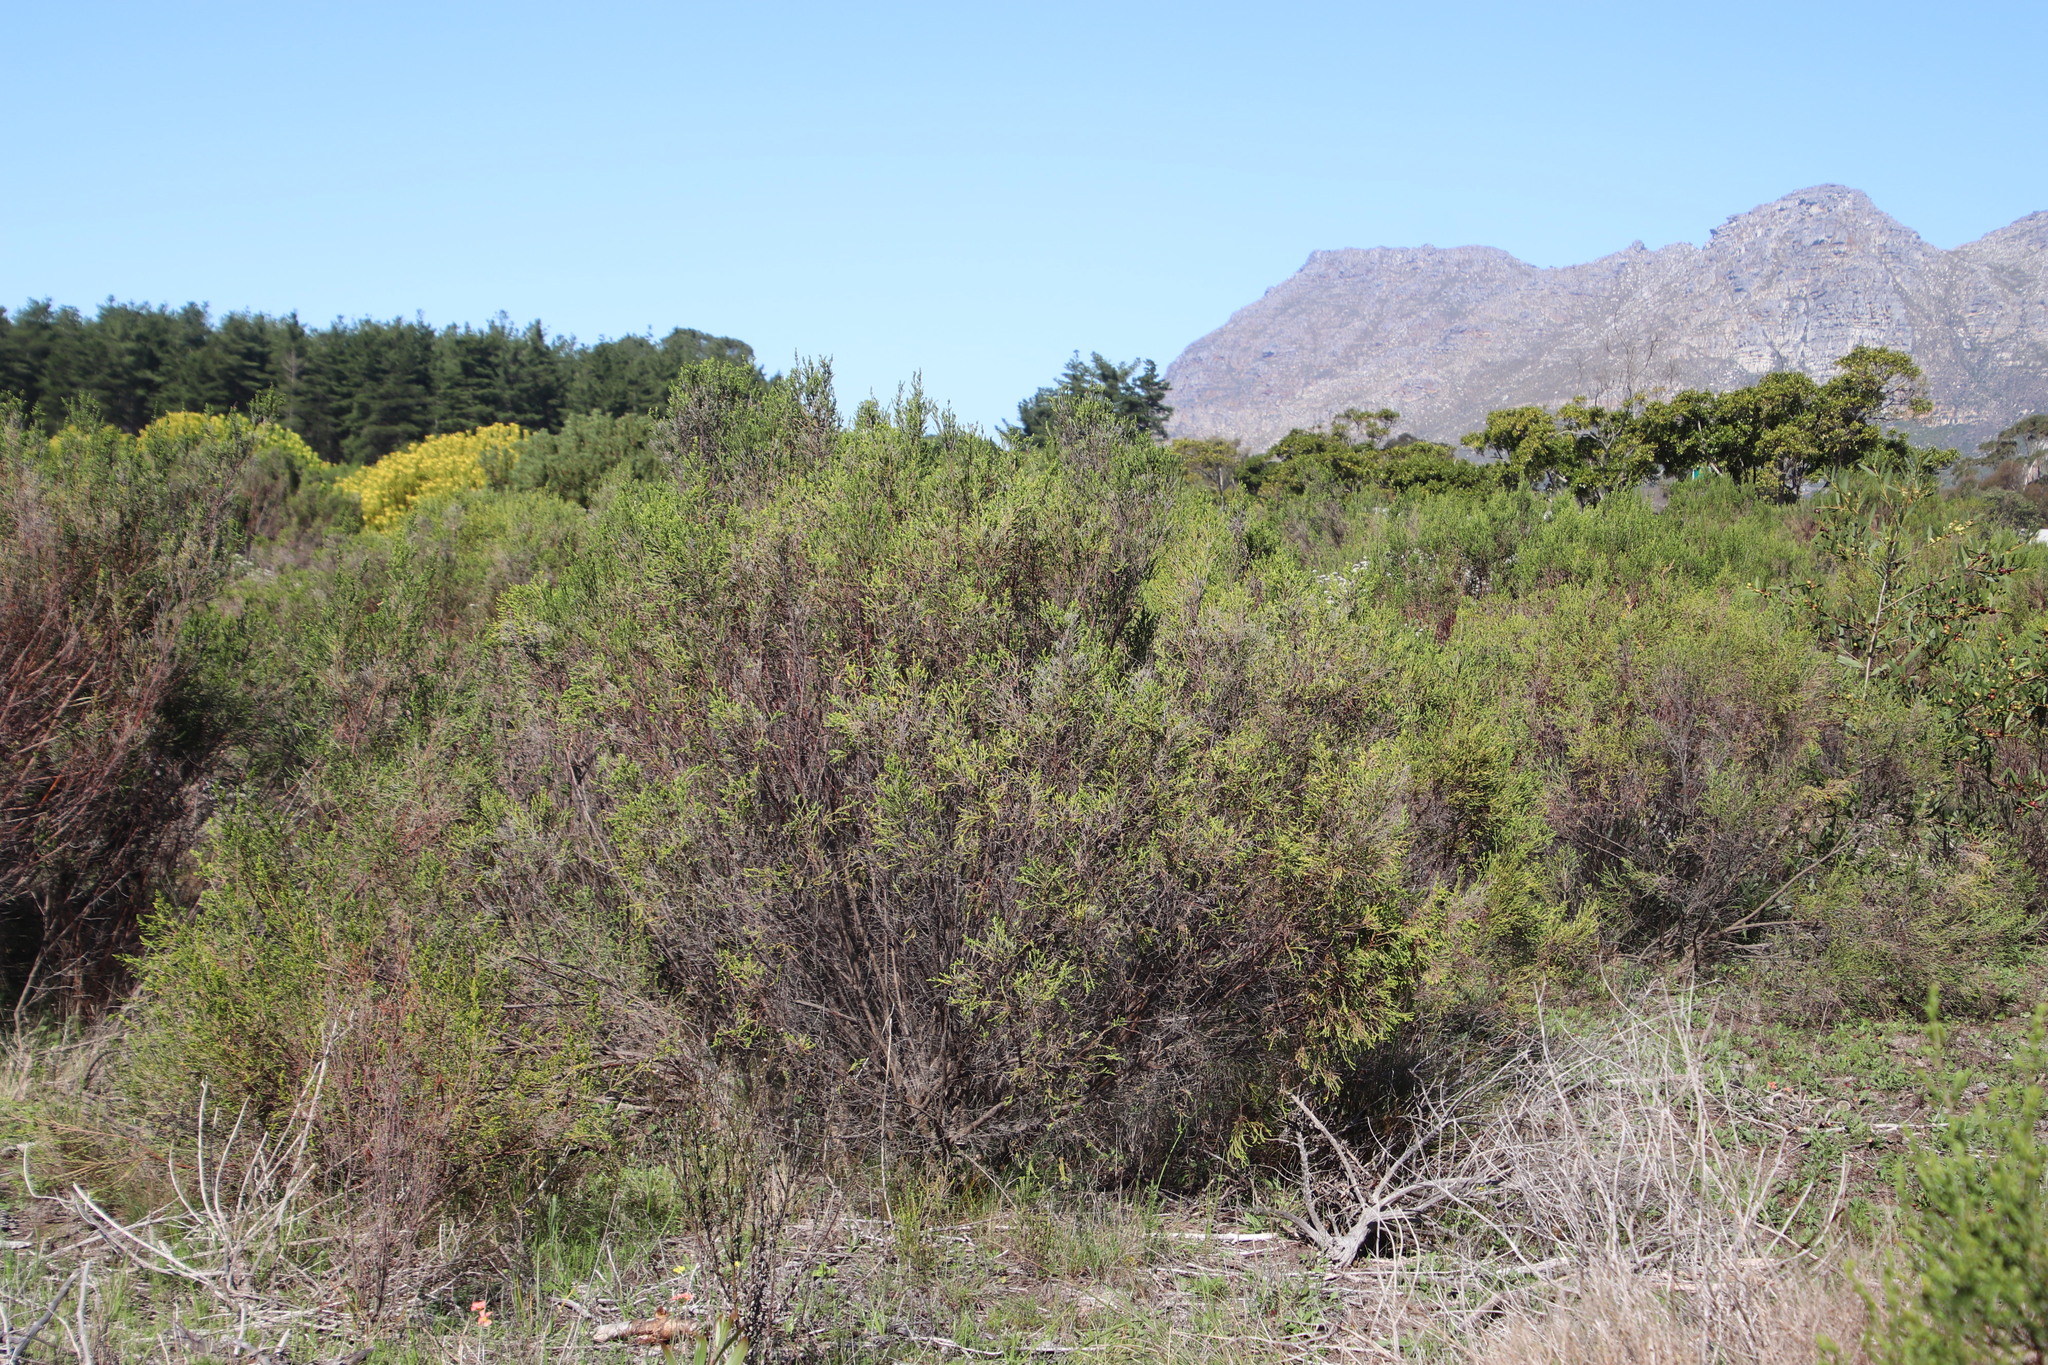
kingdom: Plantae
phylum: Tracheophyta
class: Magnoliopsida
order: Malvales
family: Thymelaeaceae
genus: Passerina
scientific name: Passerina corymbosa
